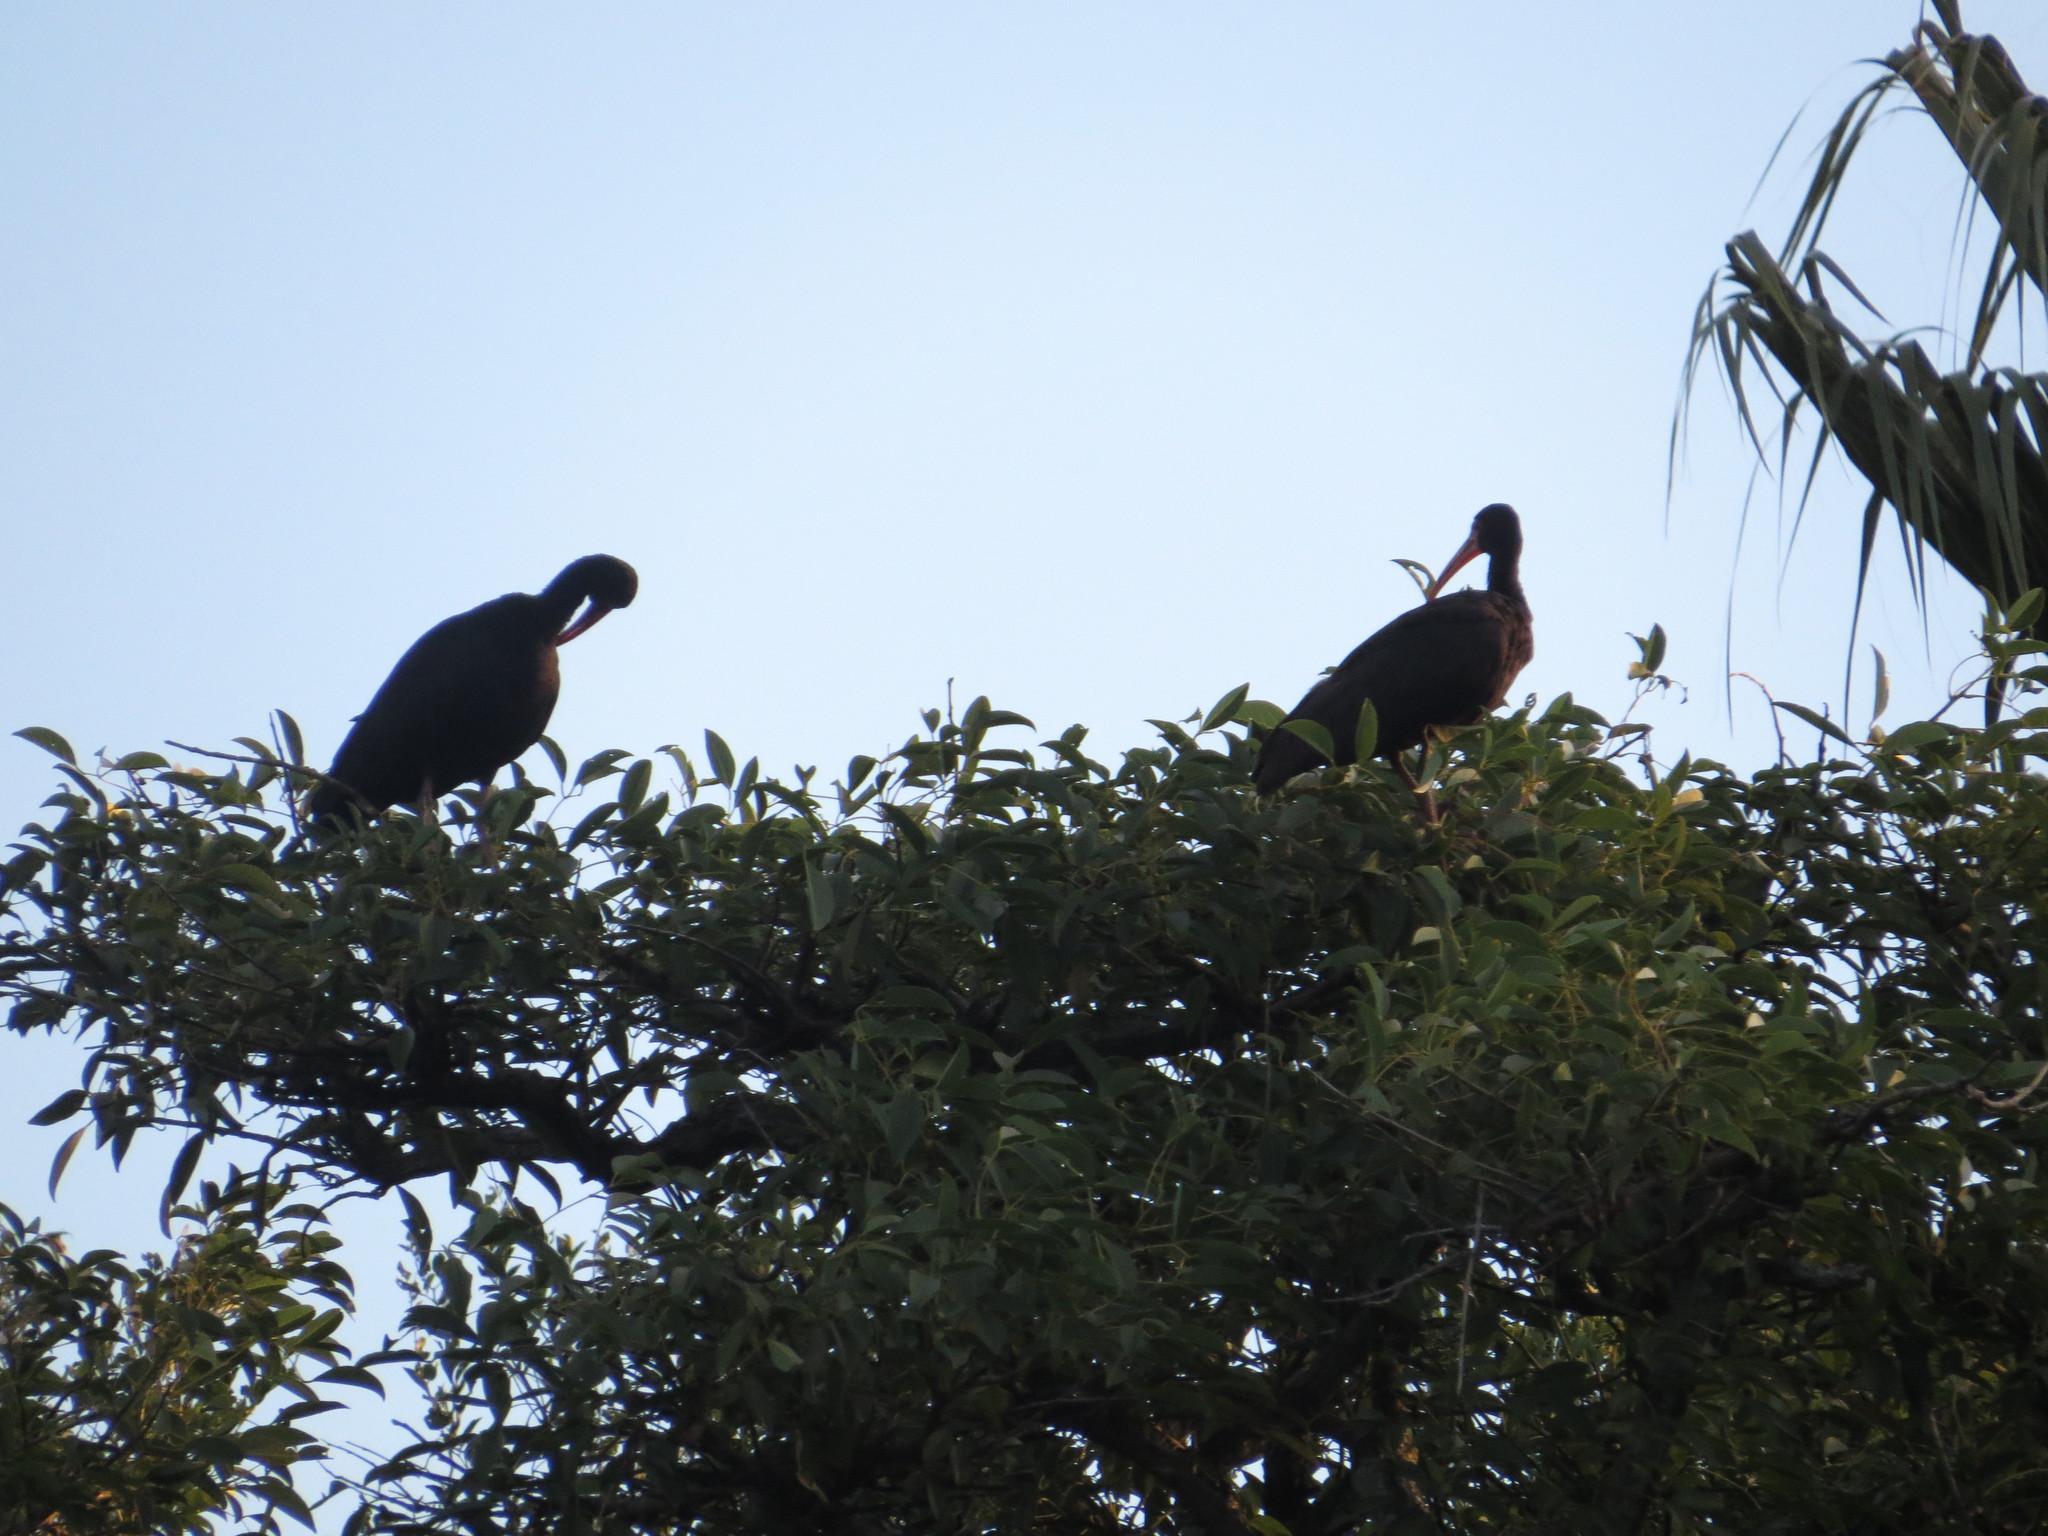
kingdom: Animalia
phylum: Chordata
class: Aves
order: Pelecaniformes
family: Threskiornithidae
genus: Phimosus
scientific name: Phimosus infuscatus
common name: Bare-faced ibis
